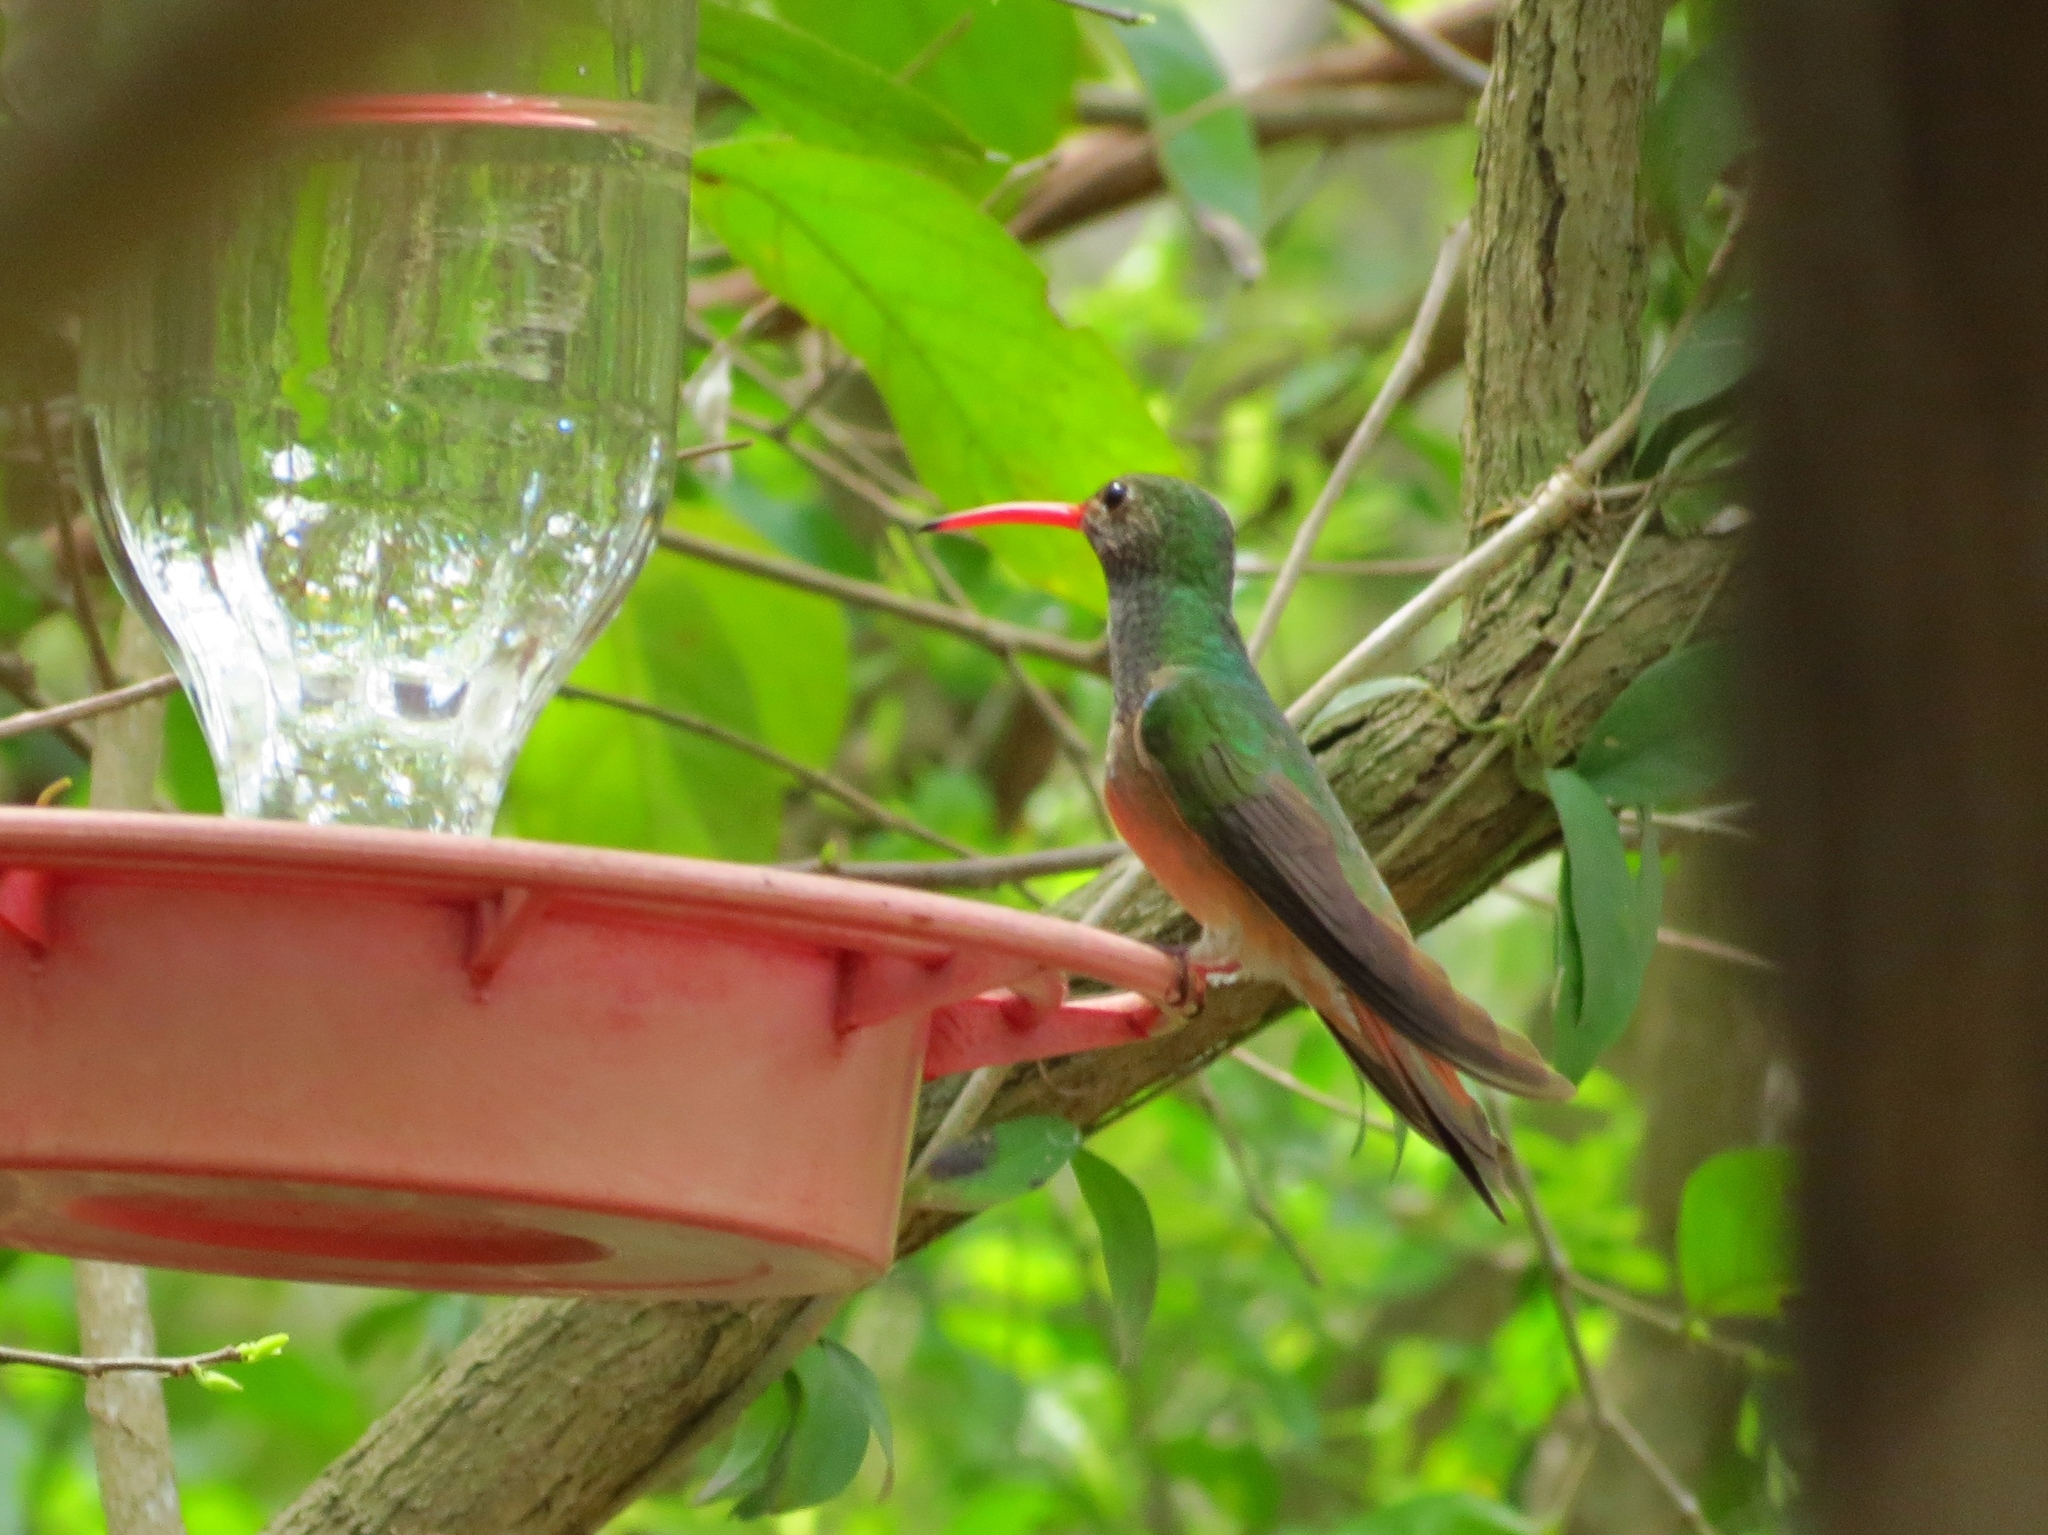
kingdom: Animalia
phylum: Chordata
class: Aves
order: Apodiformes
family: Trochilidae
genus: Amazilia
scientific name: Amazilia yucatanensis
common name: Buff-bellied hummingbird
